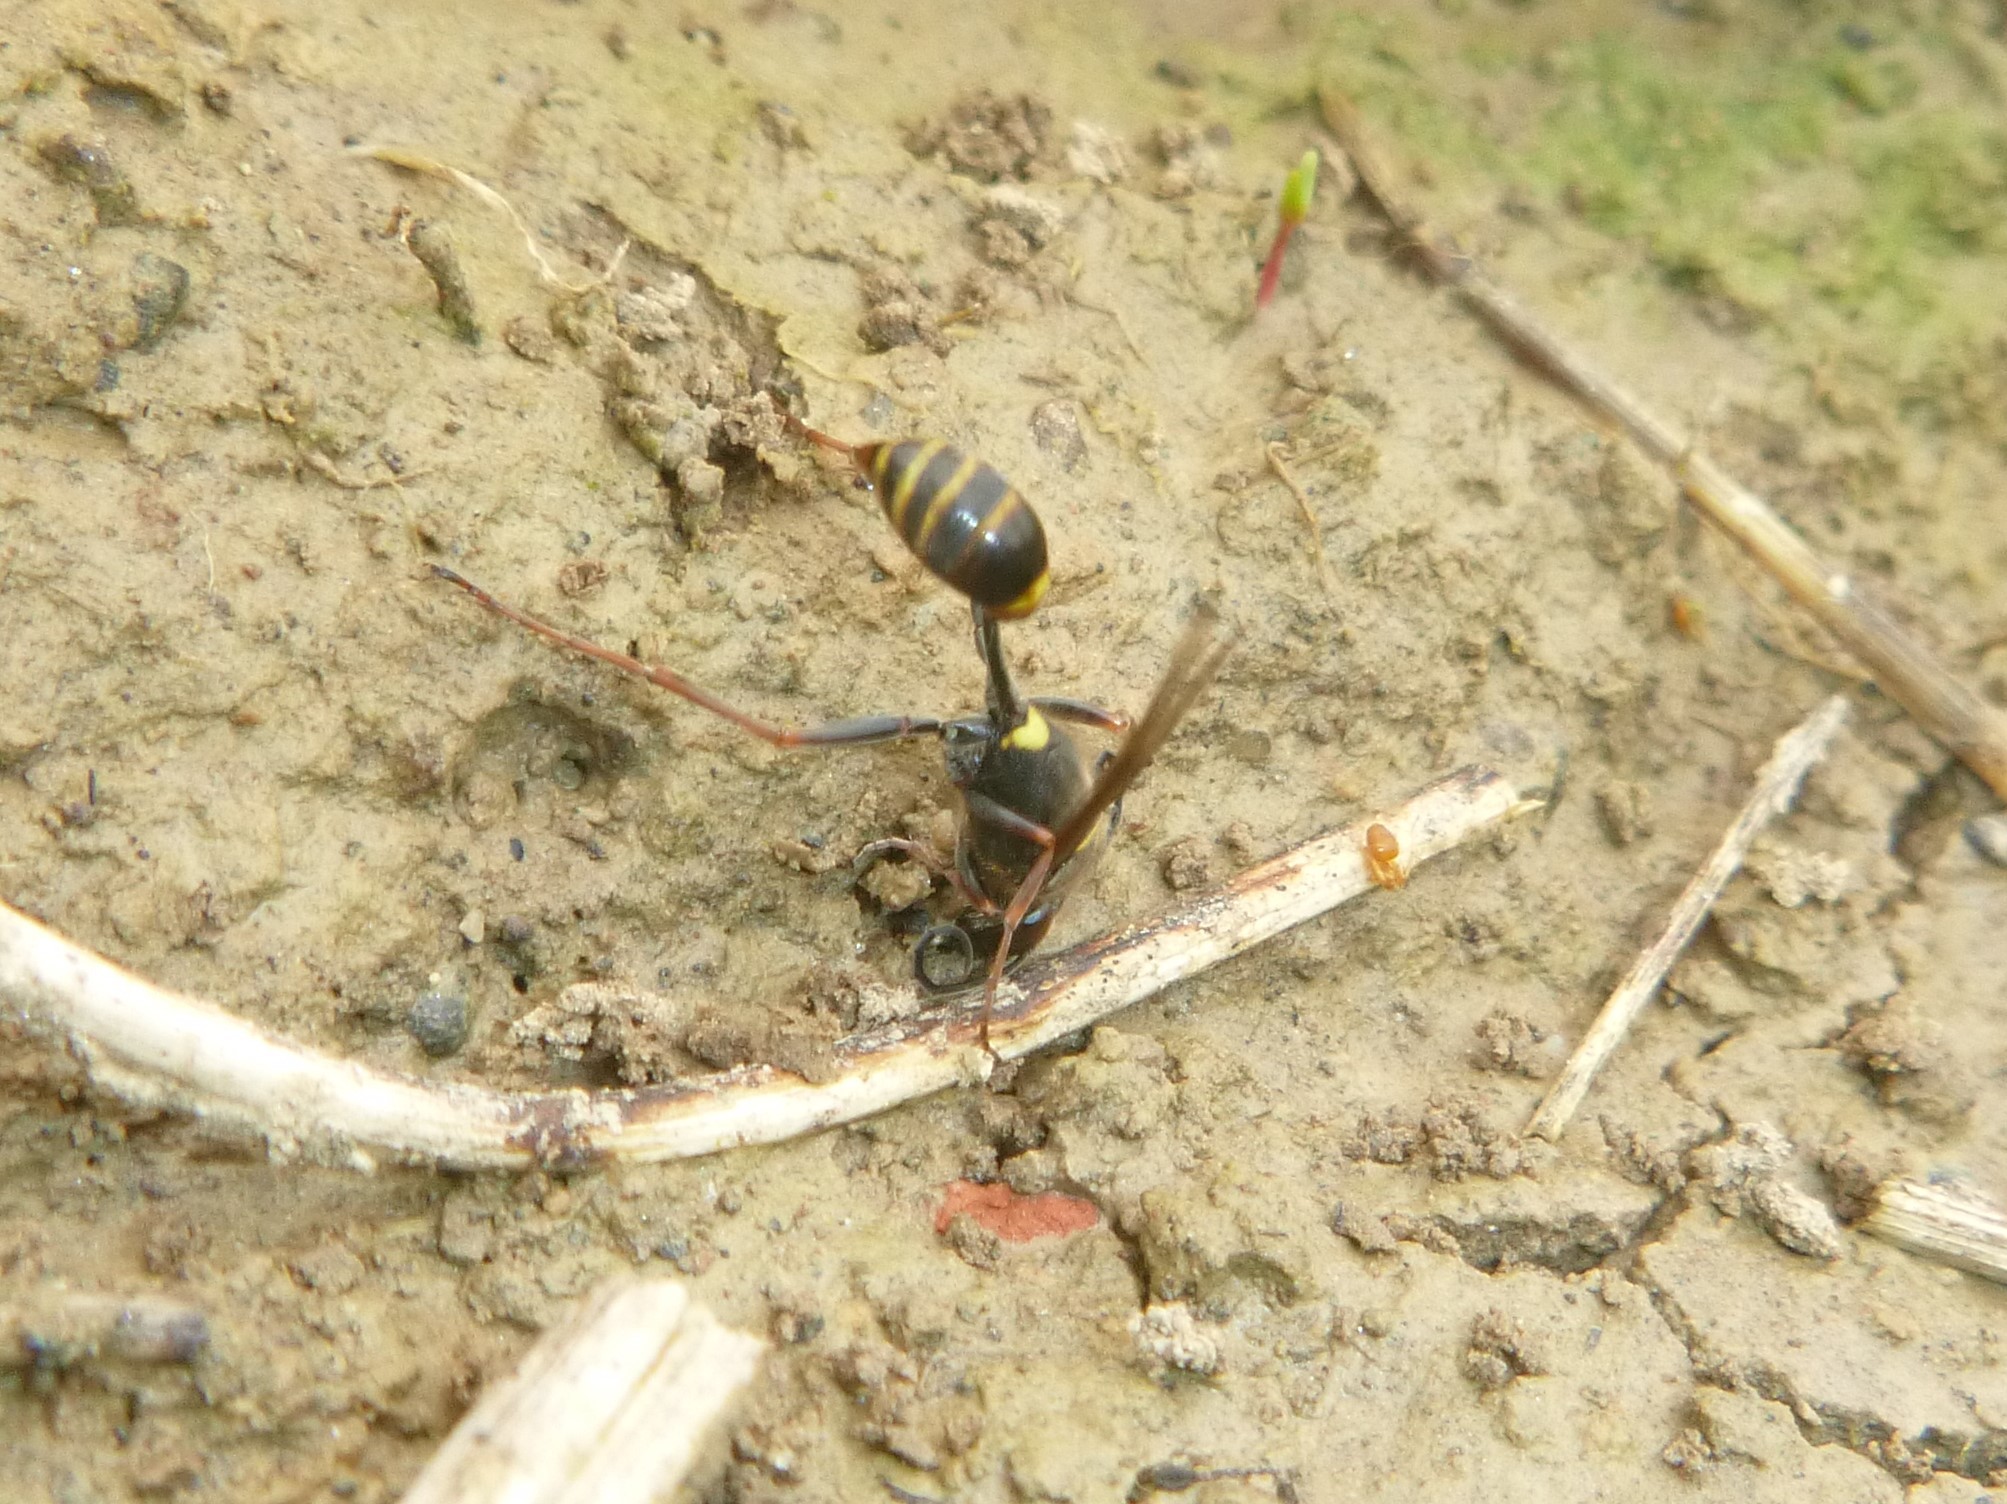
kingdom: Animalia
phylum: Arthropoda
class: Insecta
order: Hymenoptera
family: Sphecidae
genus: Sceliphron
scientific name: Sceliphron curvatum
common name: Pèlopèe
